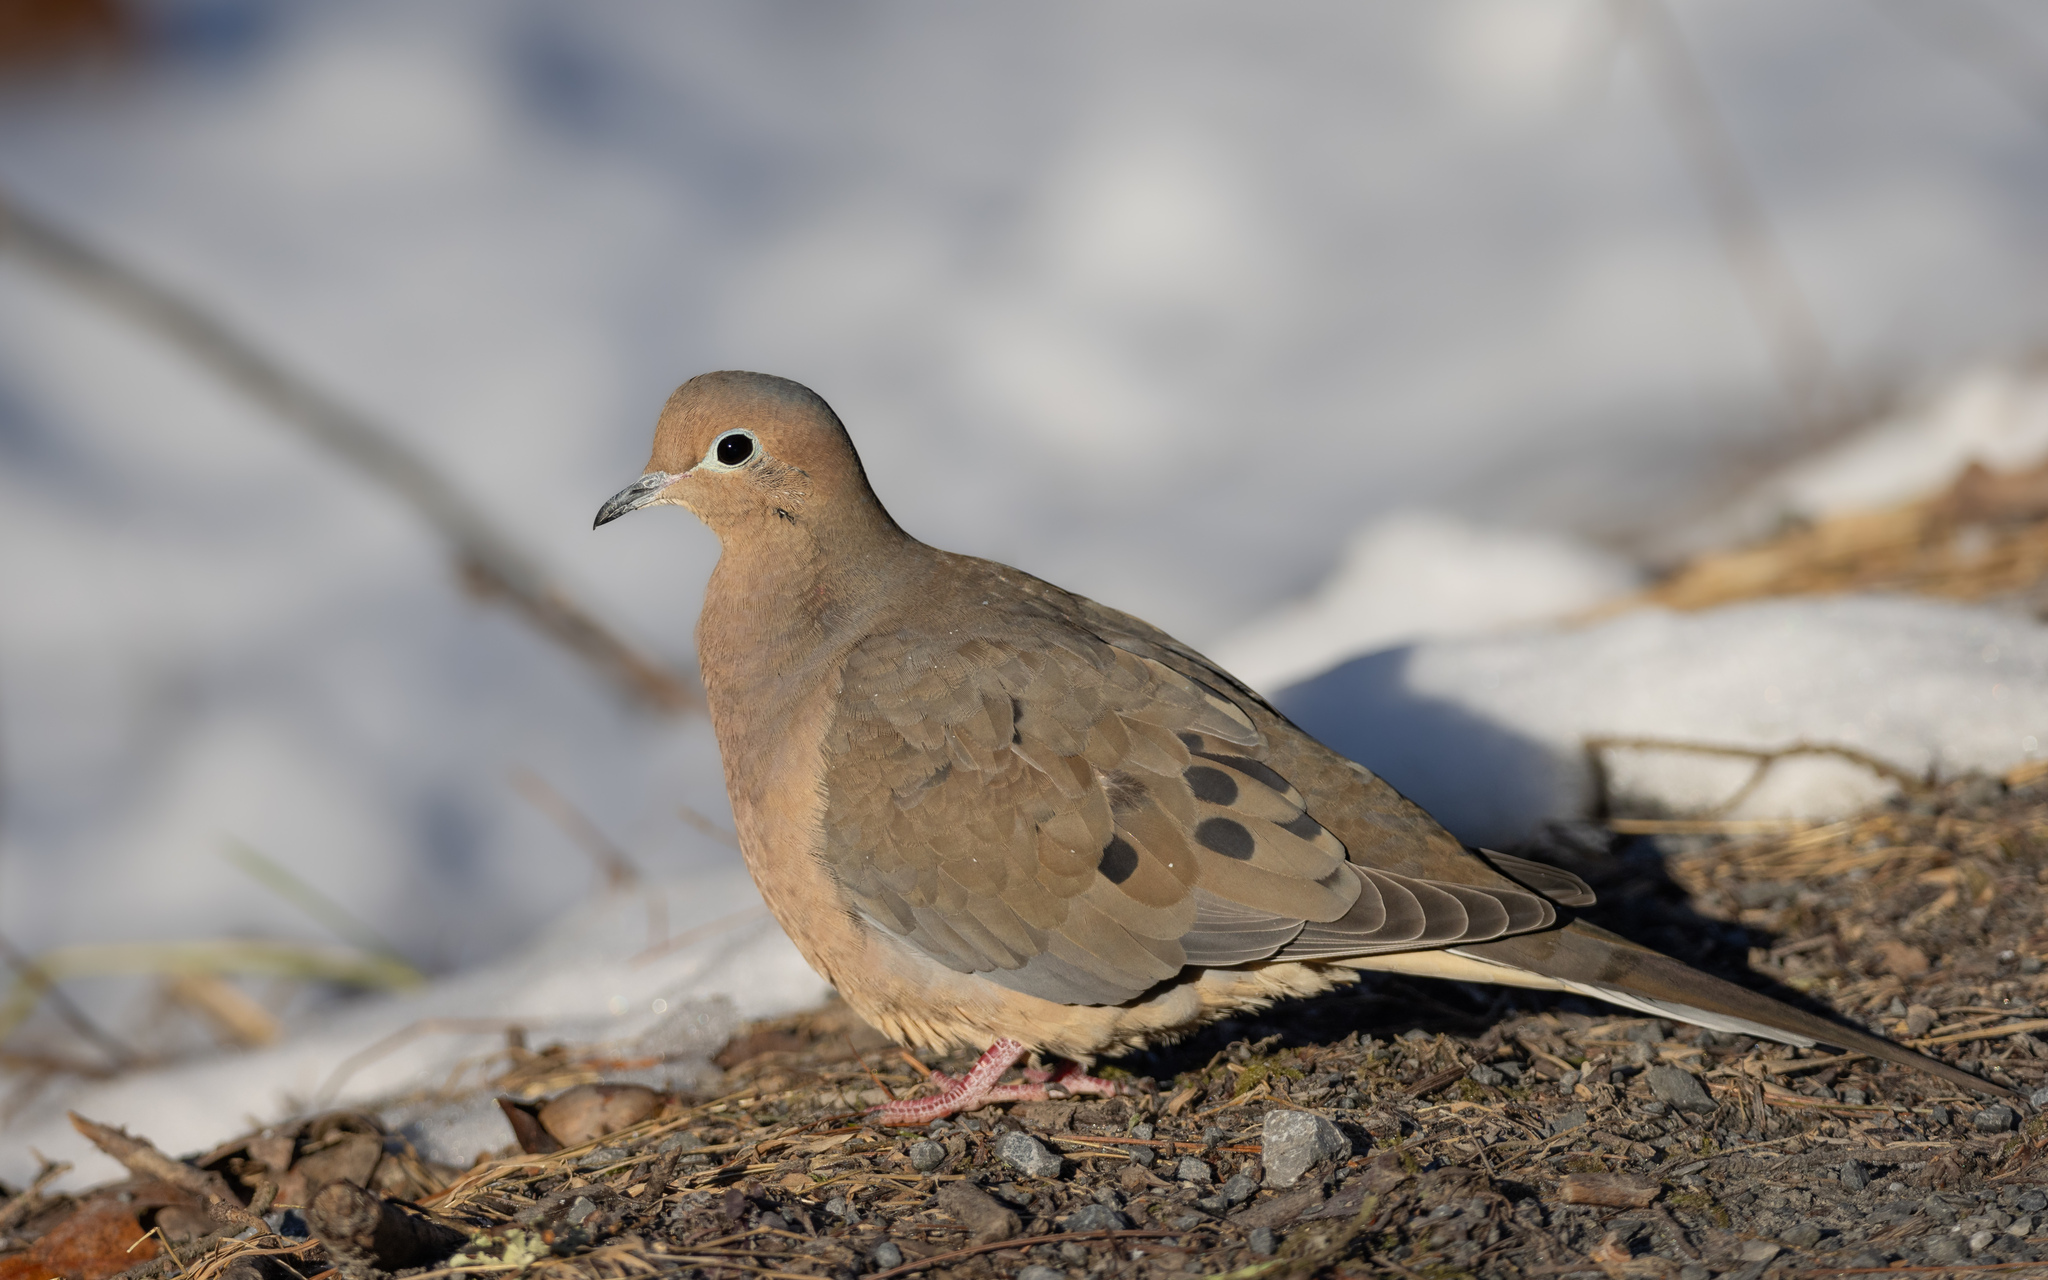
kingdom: Animalia
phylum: Chordata
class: Aves
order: Columbiformes
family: Columbidae
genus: Zenaida
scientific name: Zenaida macroura
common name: Mourning dove
